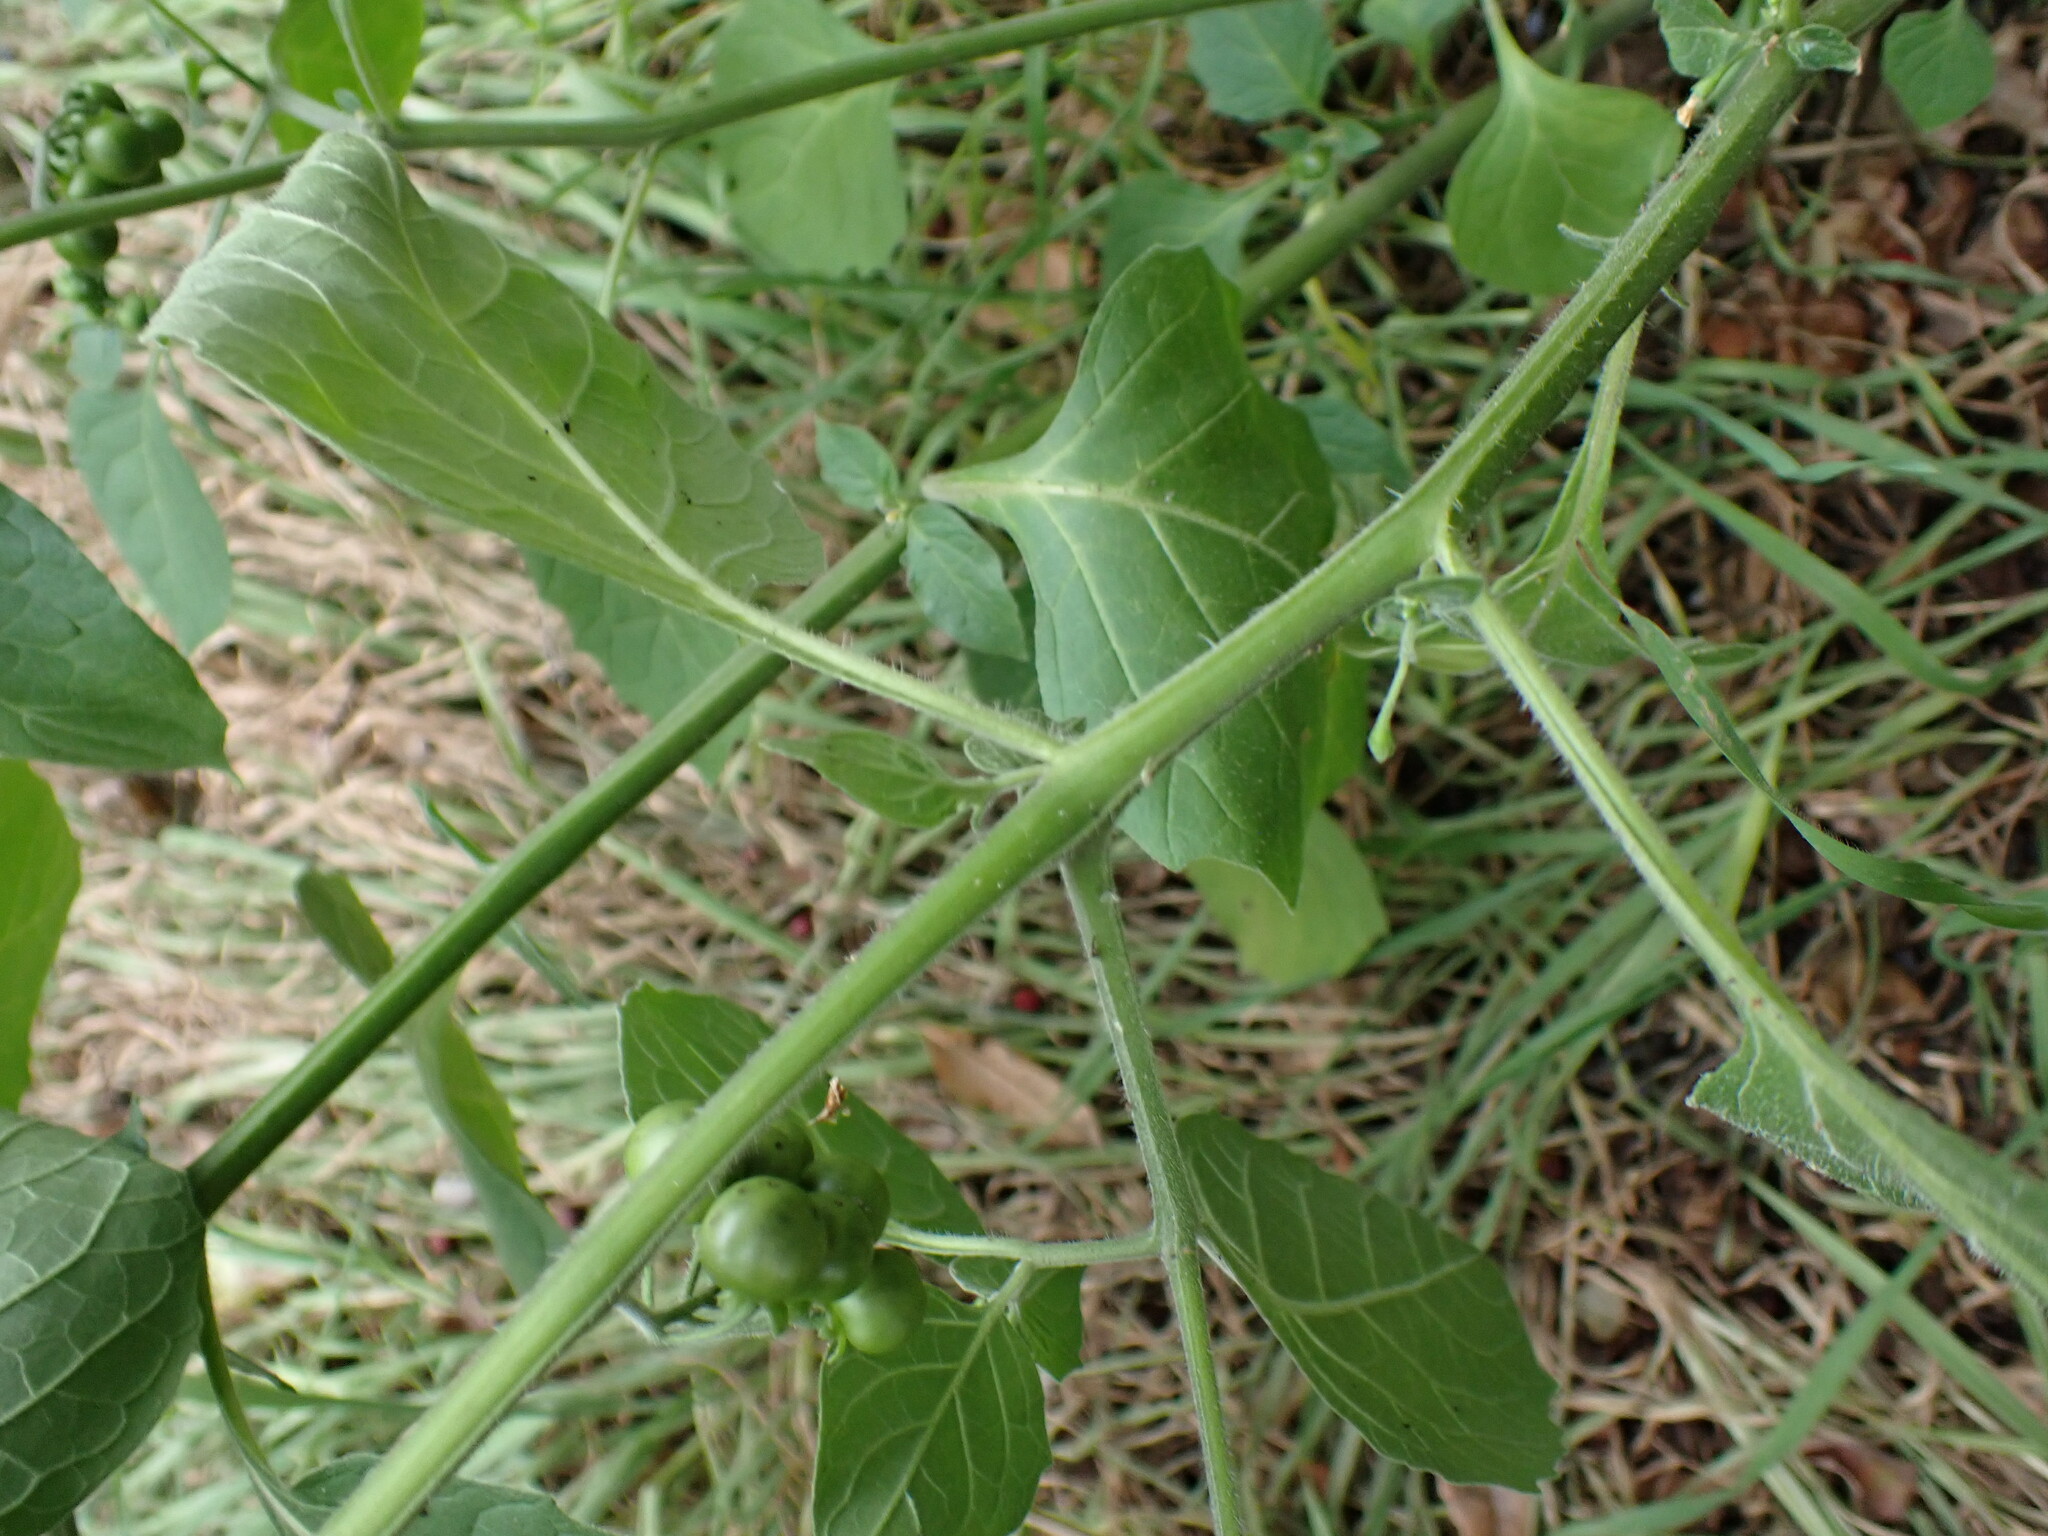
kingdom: Plantae
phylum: Tracheophyta
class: Magnoliopsida
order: Solanales
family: Solanaceae
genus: Solanum
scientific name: Solanum nigrum
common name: Black nightshade
